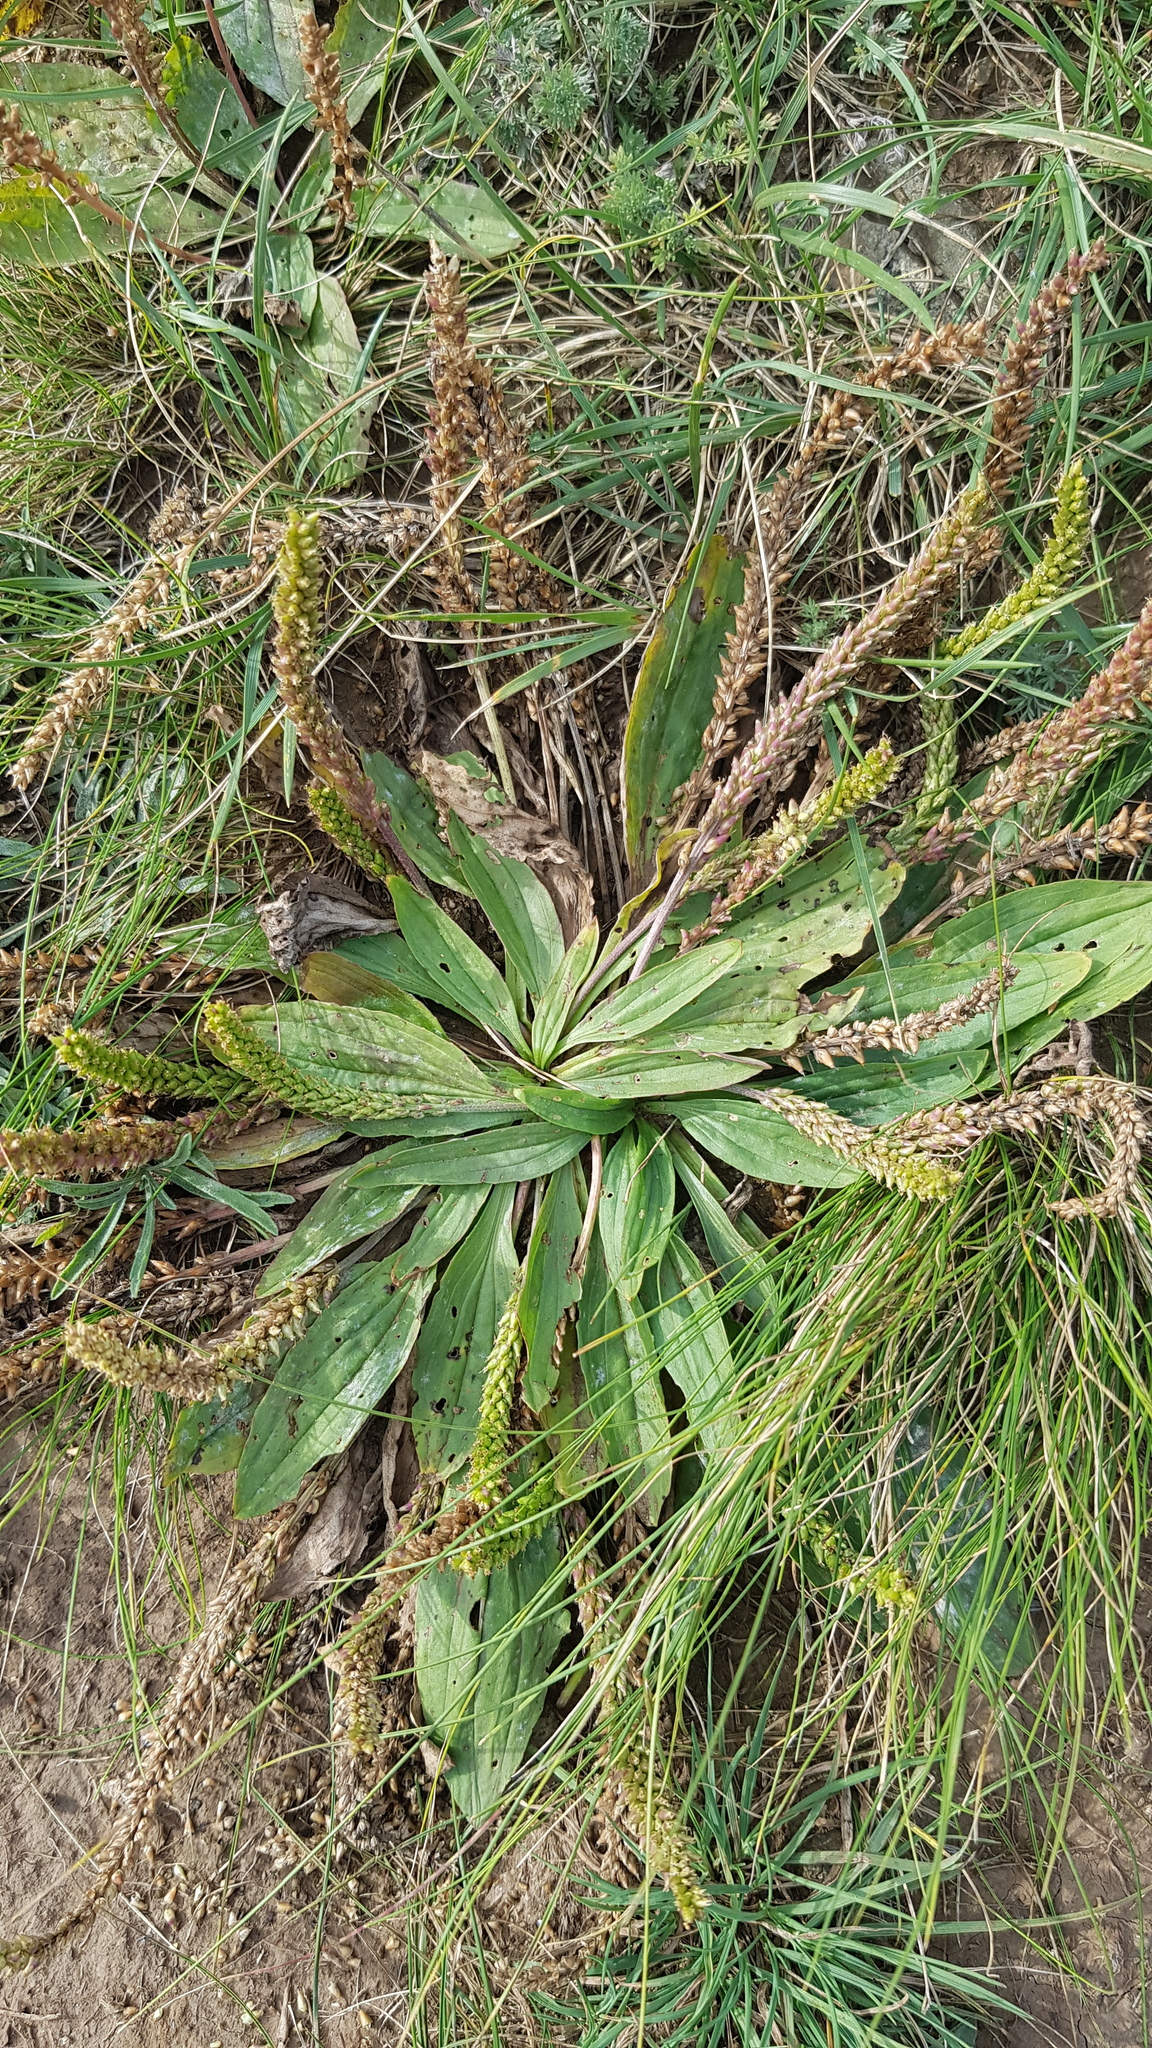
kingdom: Plantae
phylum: Tracheophyta
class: Magnoliopsida
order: Lamiales
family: Plantaginaceae
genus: Plantago
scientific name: Plantago depressa
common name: Depressed plantain
